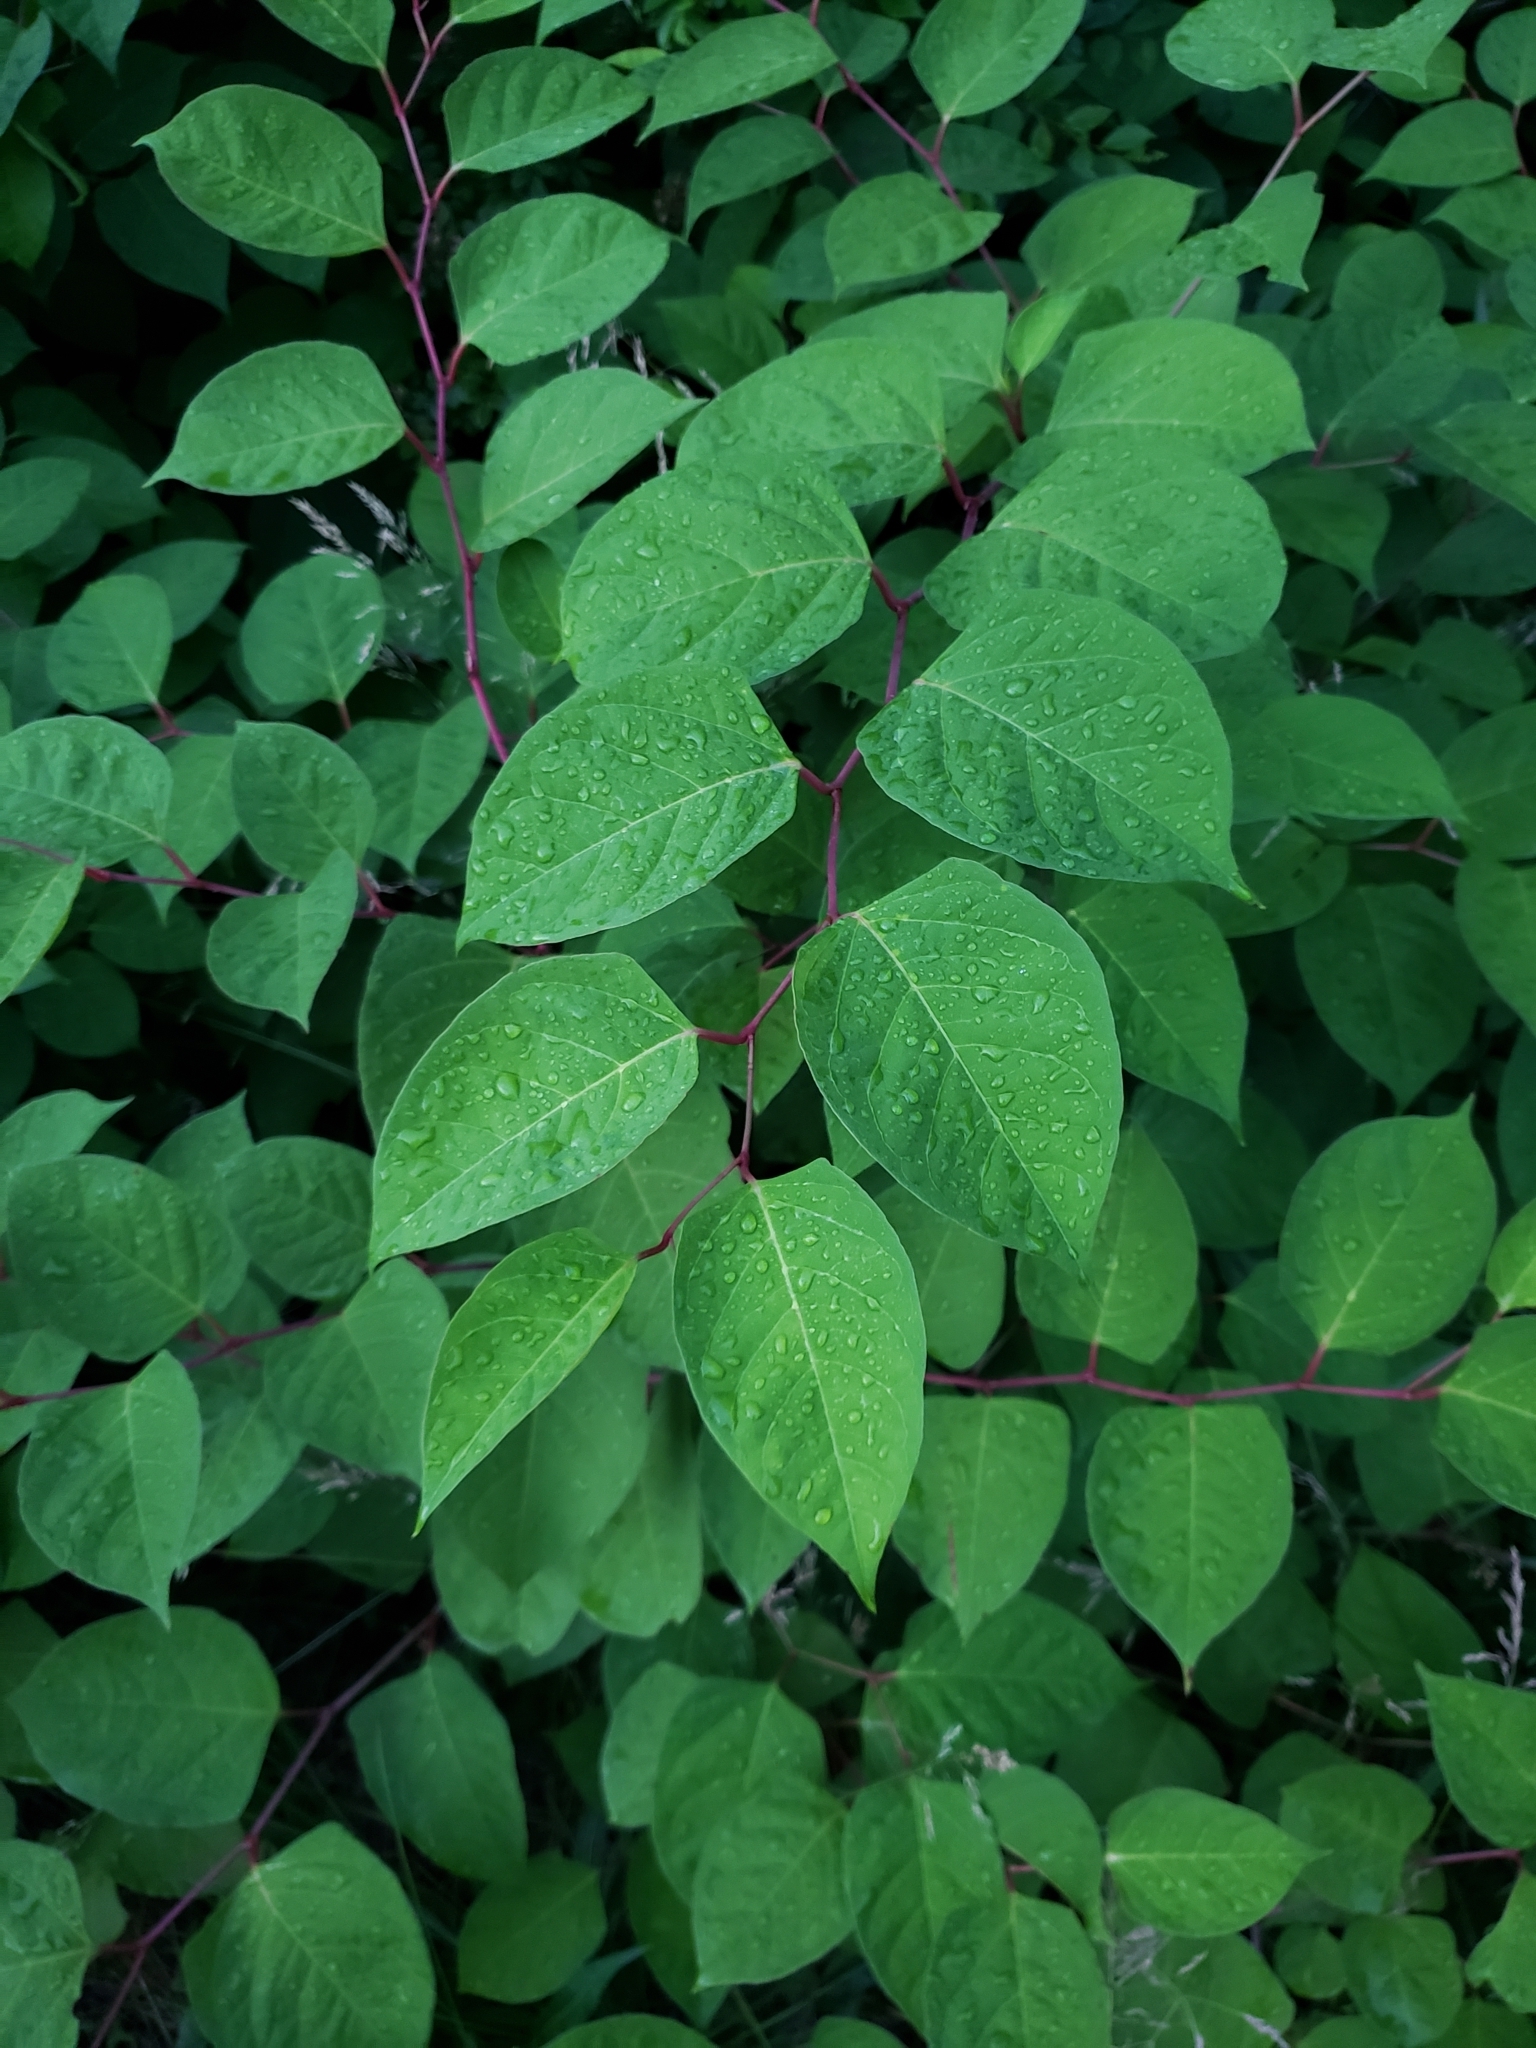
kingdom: Plantae
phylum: Tracheophyta
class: Magnoliopsida
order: Caryophyllales
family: Polygonaceae
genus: Reynoutria
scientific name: Reynoutria japonica
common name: Japanese knotweed
